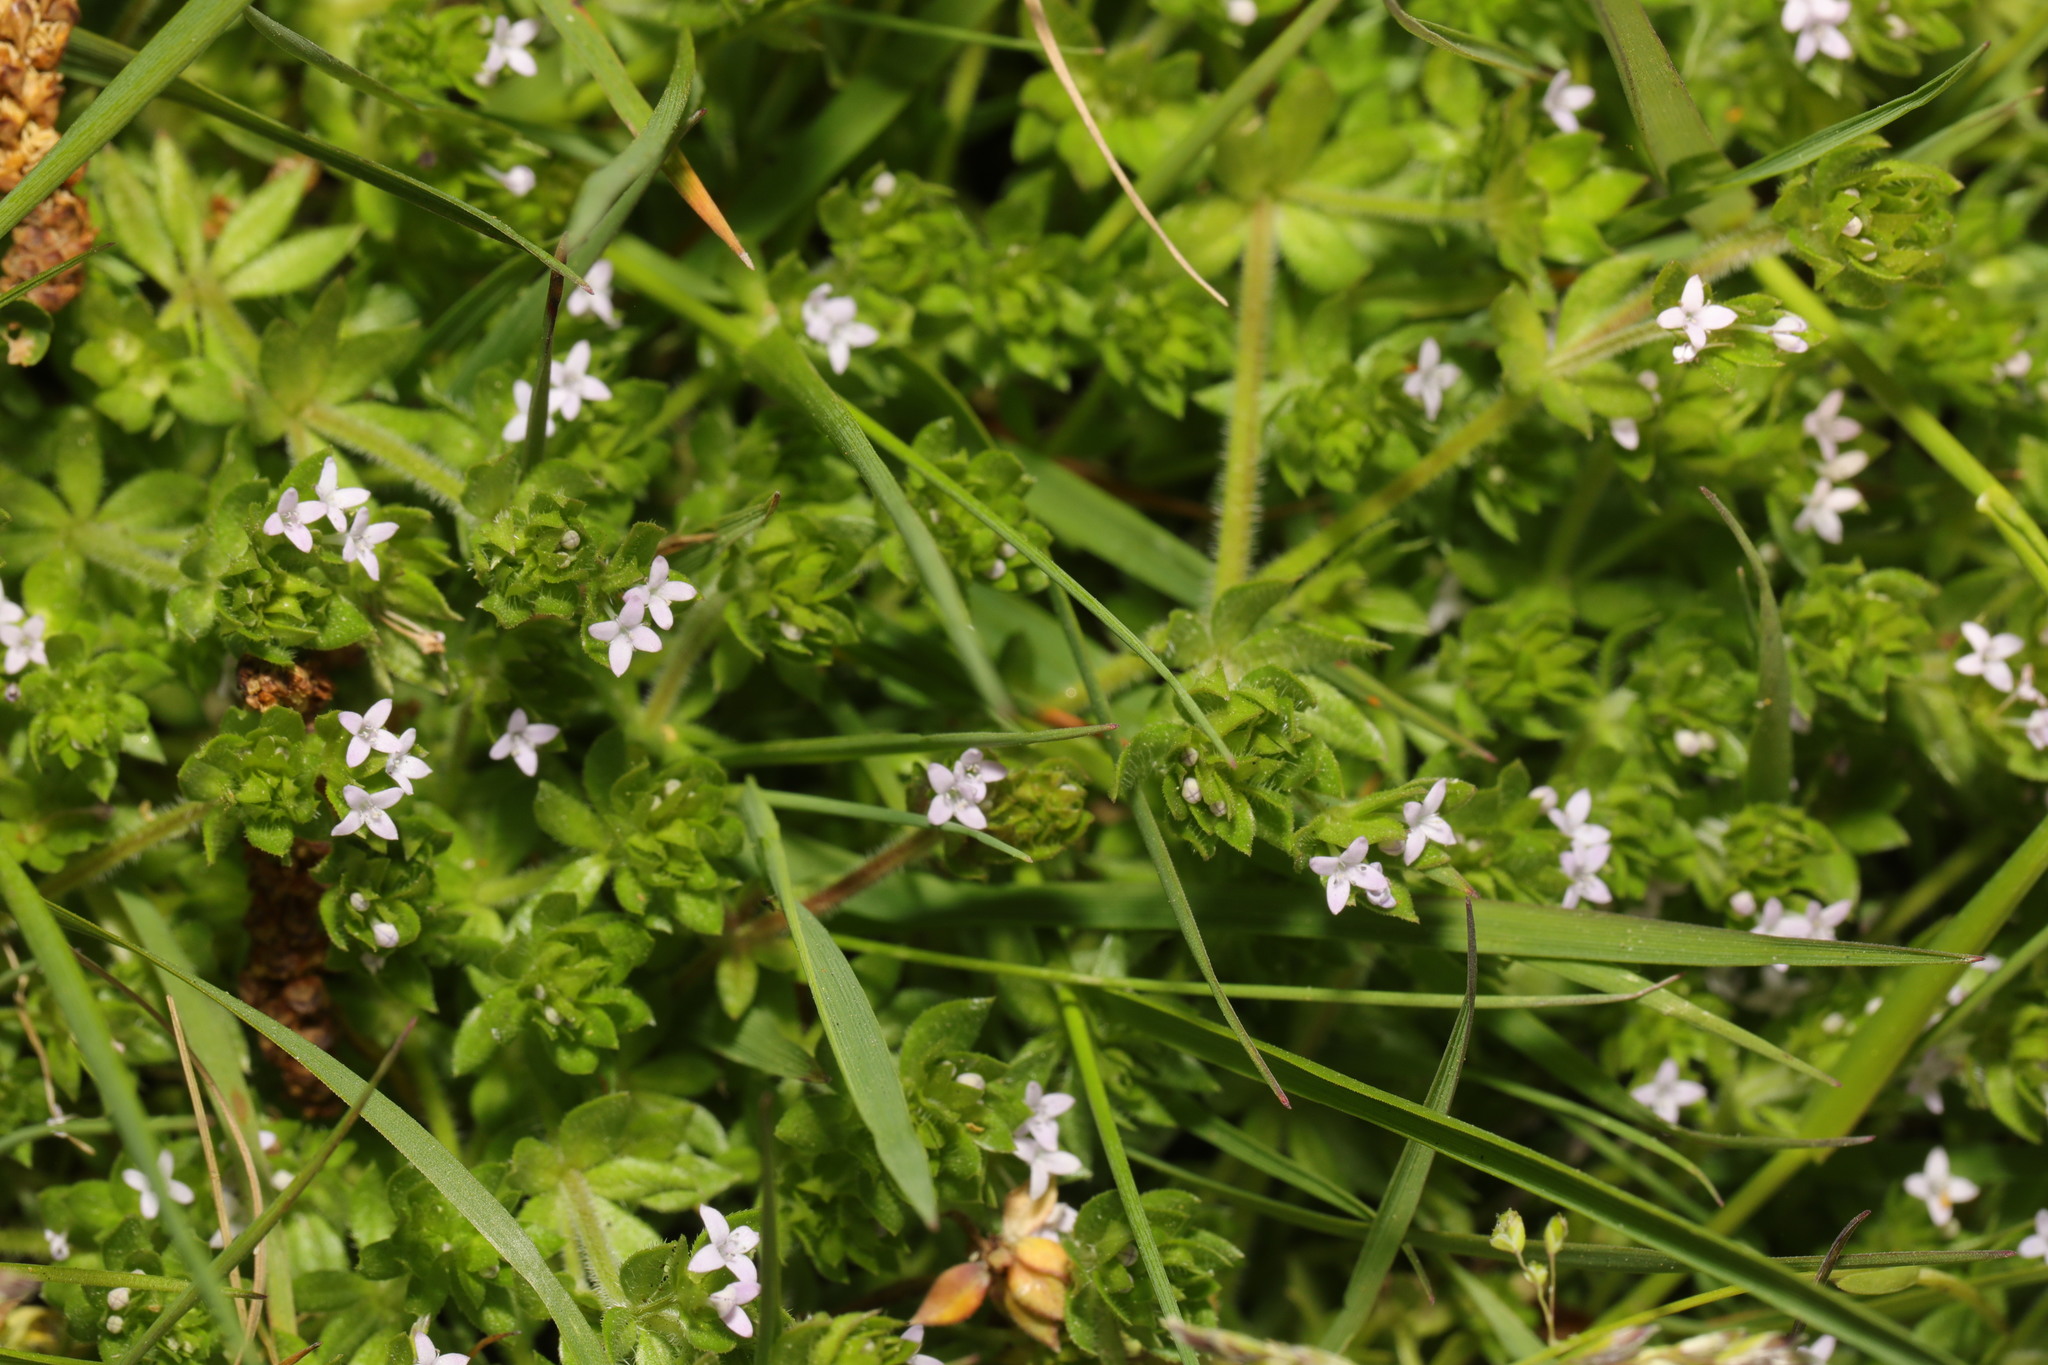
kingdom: Plantae
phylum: Tracheophyta
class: Magnoliopsida
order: Gentianales
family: Rubiaceae
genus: Sherardia
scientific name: Sherardia arvensis
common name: Field madder
